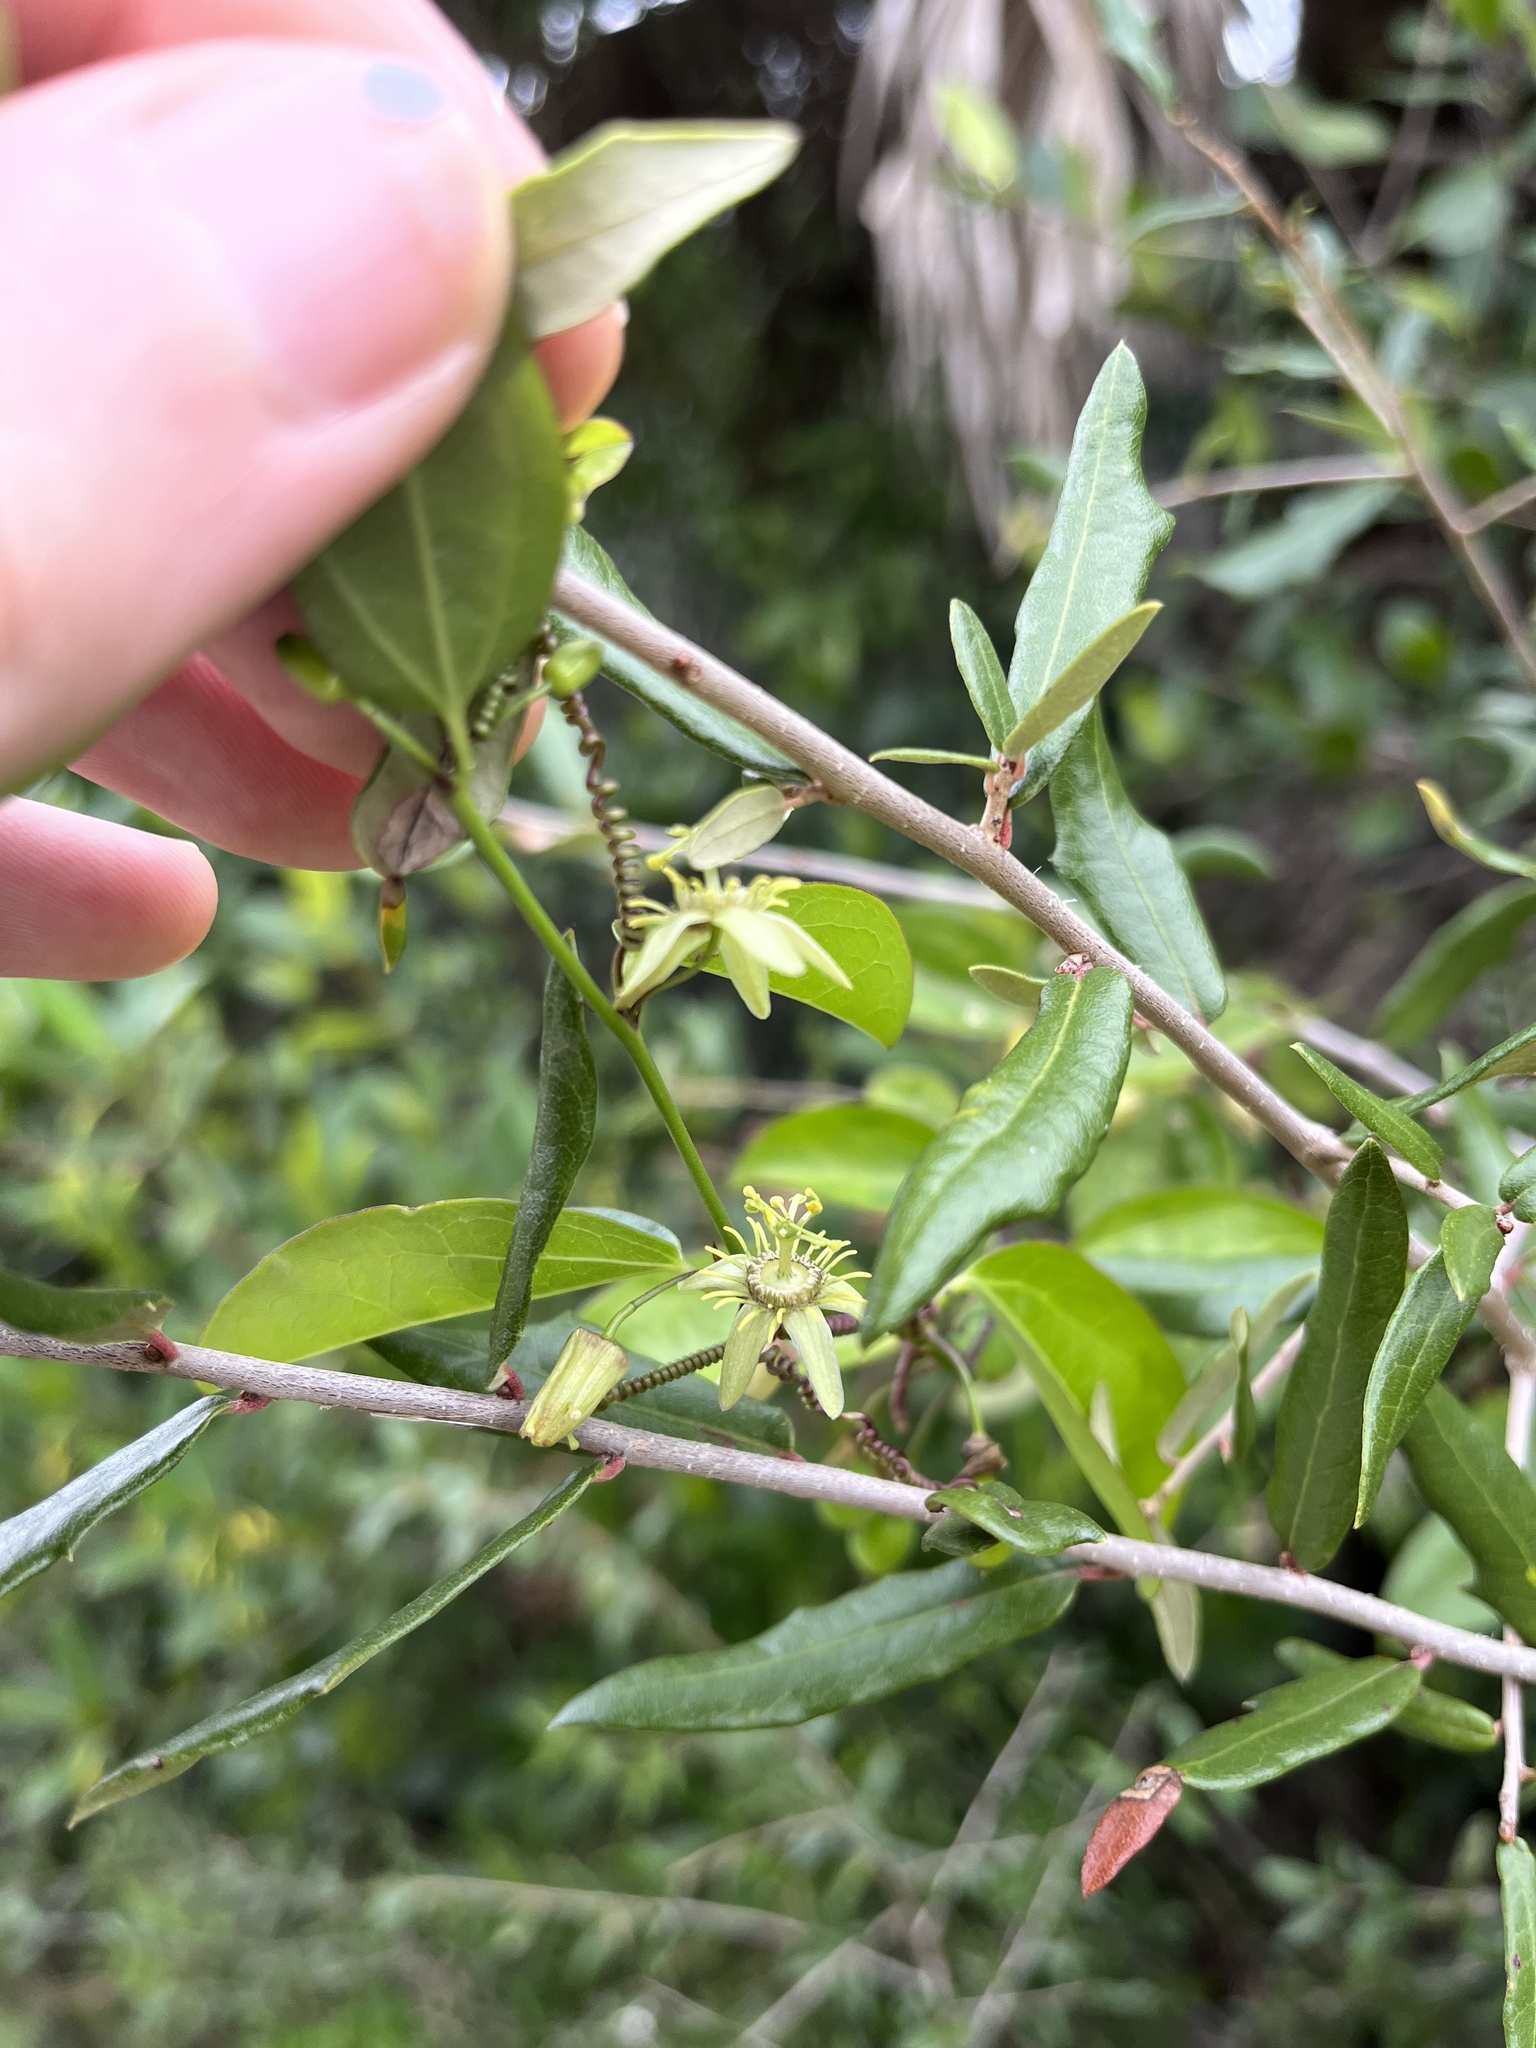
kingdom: Plantae
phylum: Tracheophyta
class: Magnoliopsida
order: Malpighiales
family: Passifloraceae
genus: Passiflora
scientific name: Passiflora pallida
